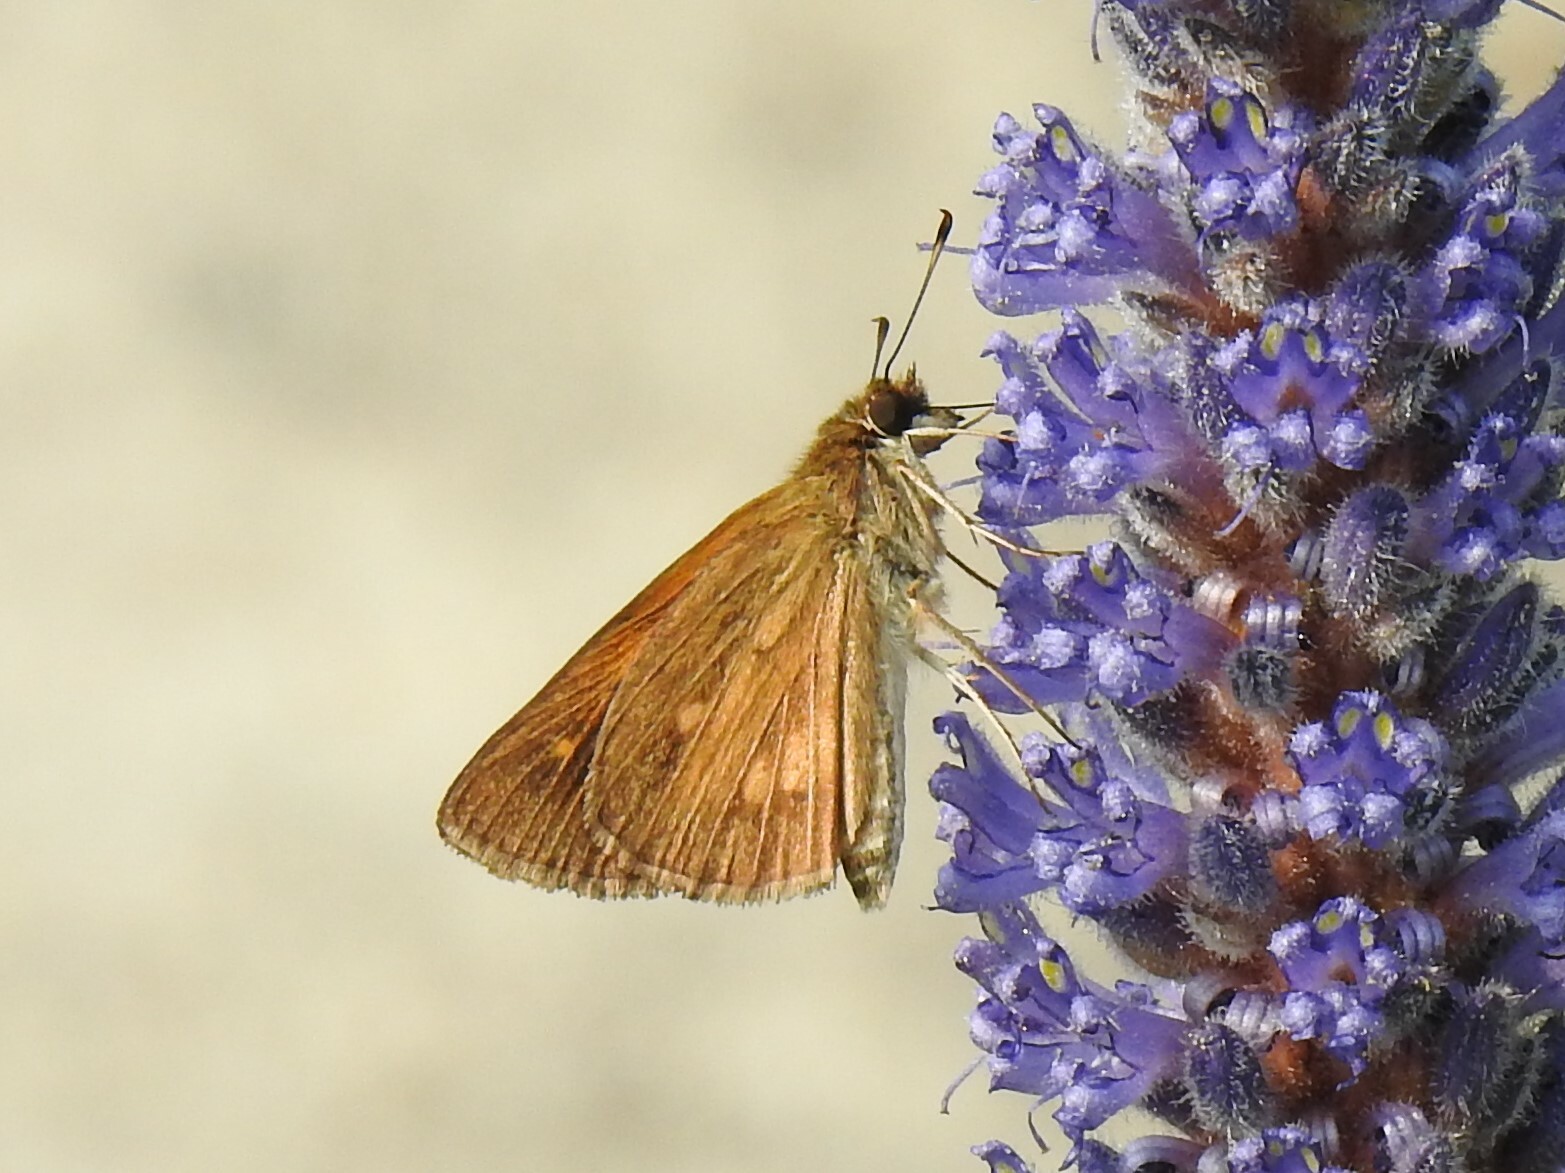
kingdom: Animalia
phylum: Arthropoda
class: Insecta
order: Lepidoptera
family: Hesperiidae
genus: Poanes
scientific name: Poanes viator
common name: Broad-winged skipper
